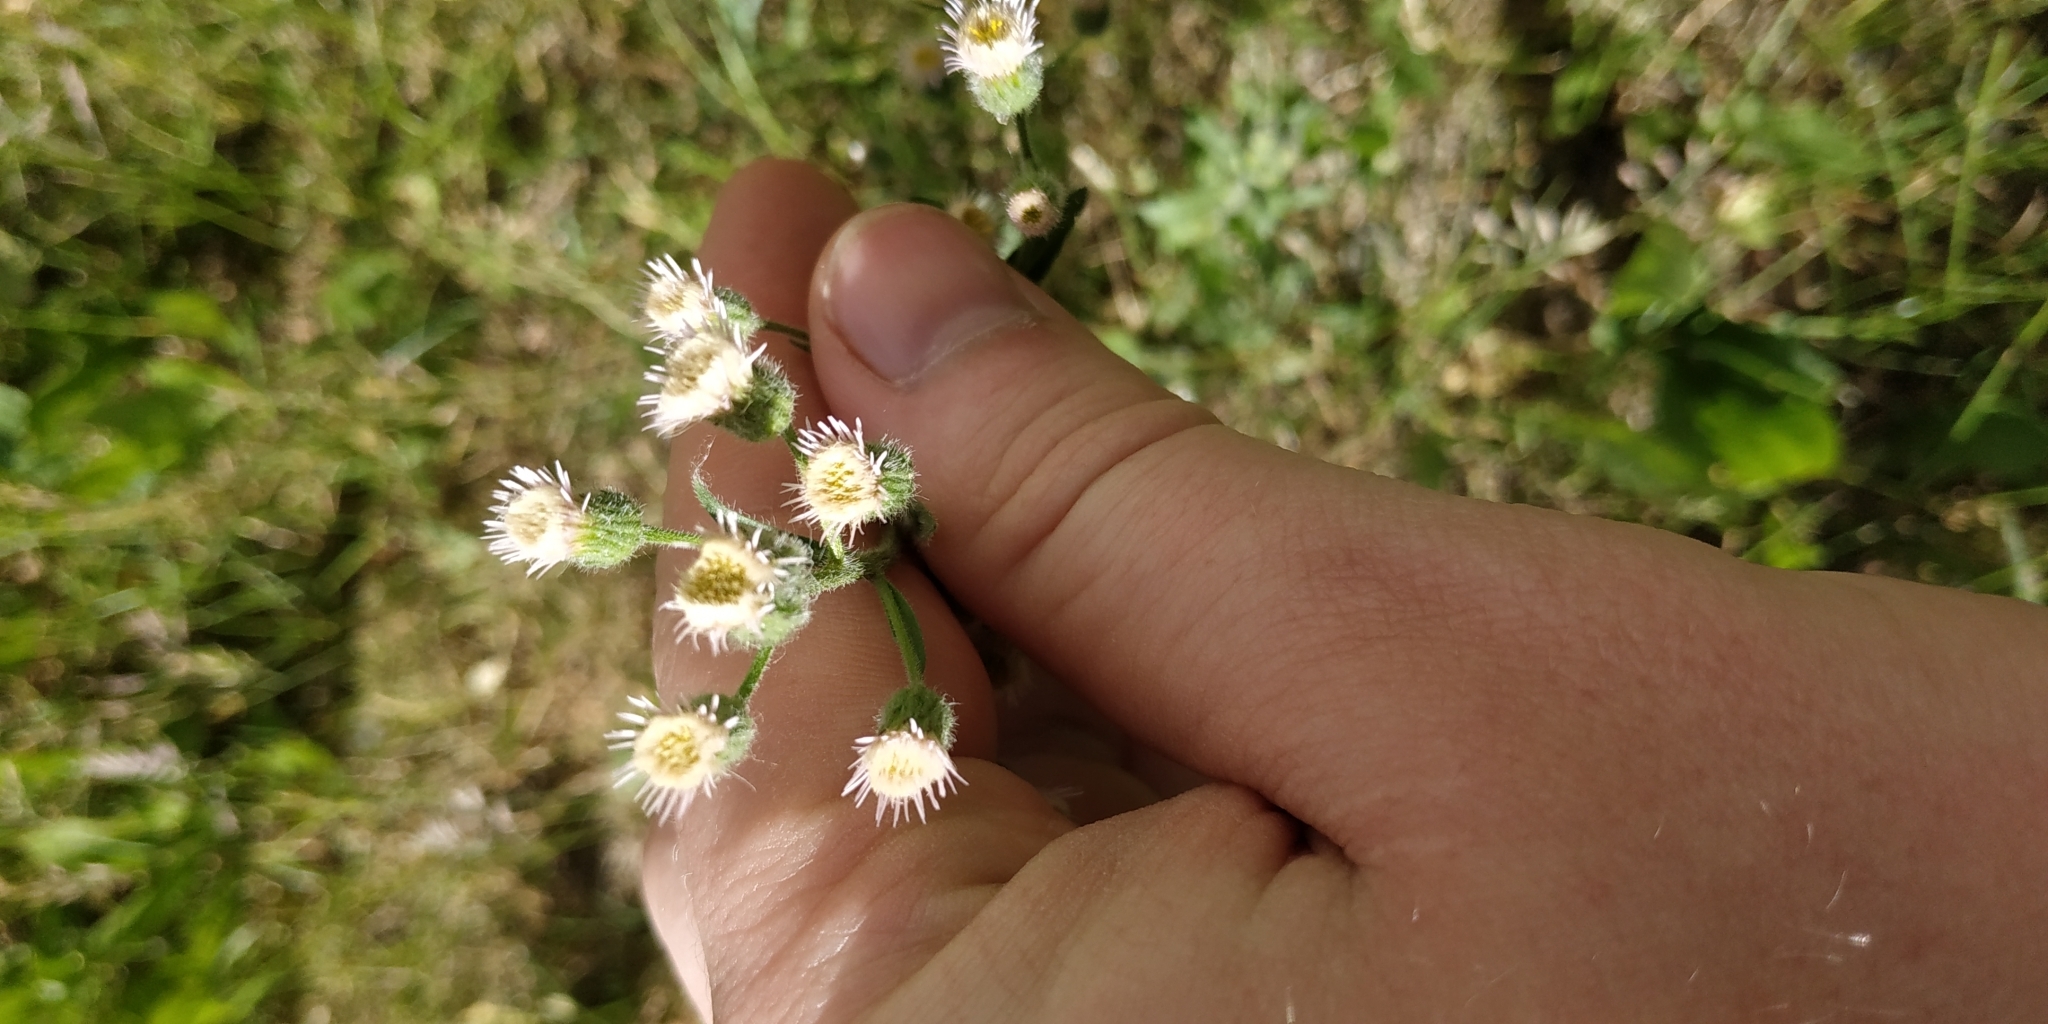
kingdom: Plantae
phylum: Tracheophyta
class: Magnoliopsida
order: Asterales
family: Asteraceae
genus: Erigeron
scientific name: Erigeron acris
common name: Blue fleabane
